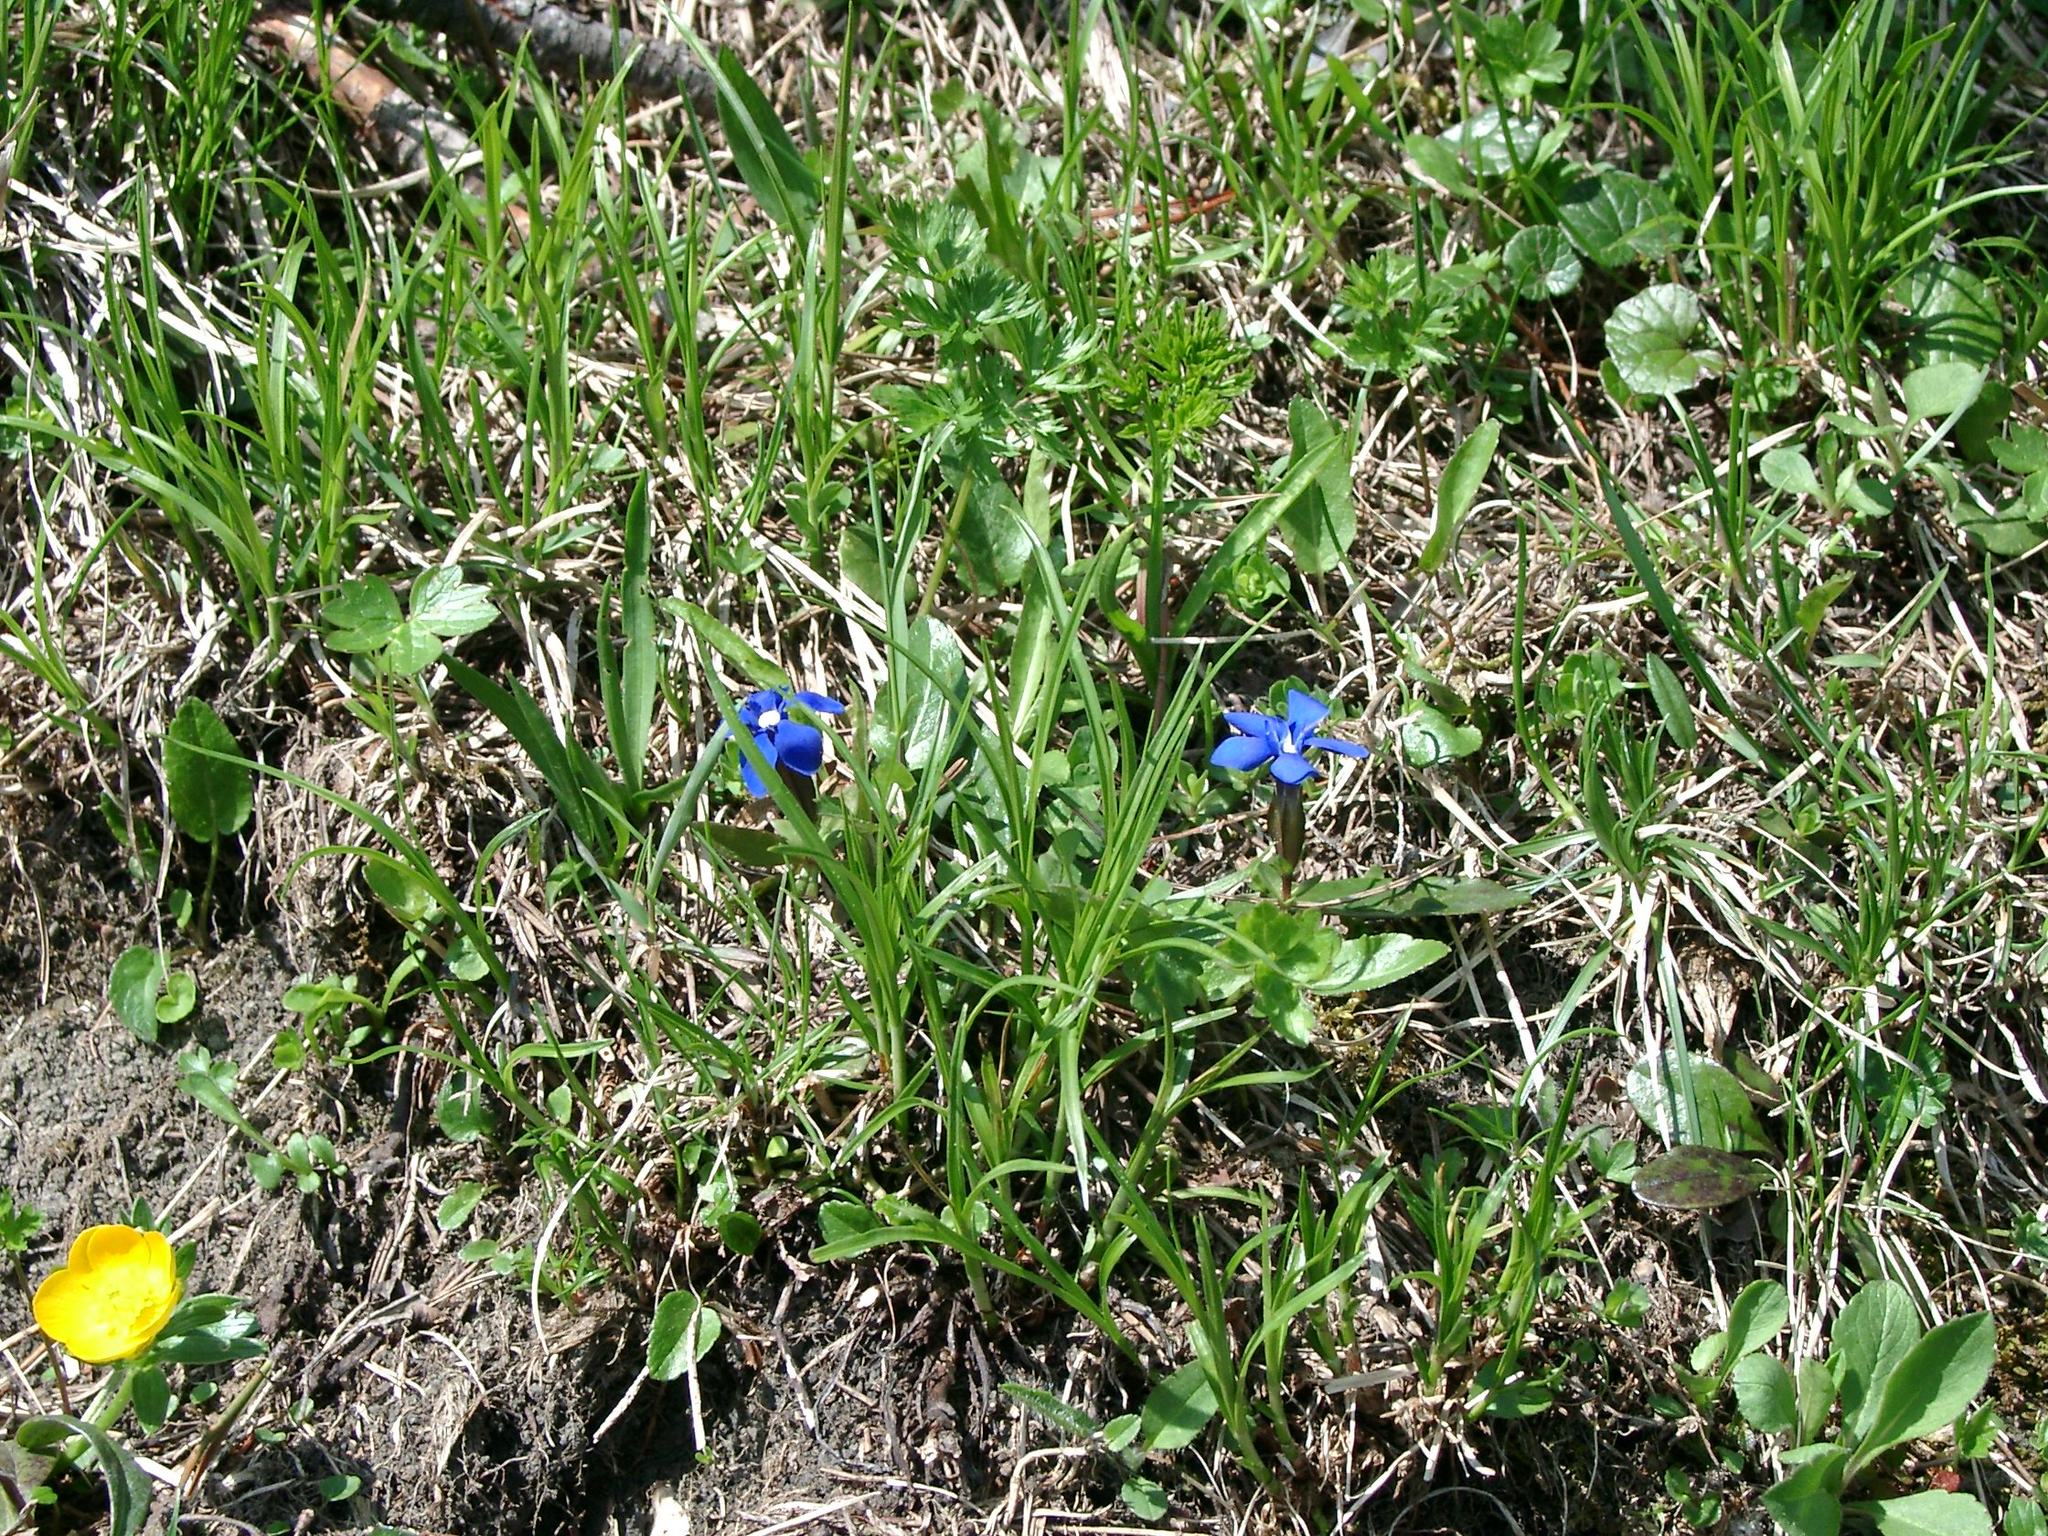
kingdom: Plantae
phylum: Tracheophyta
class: Magnoliopsida
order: Gentianales
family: Gentianaceae
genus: Gentiana
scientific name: Gentiana verna
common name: Spring gentian
